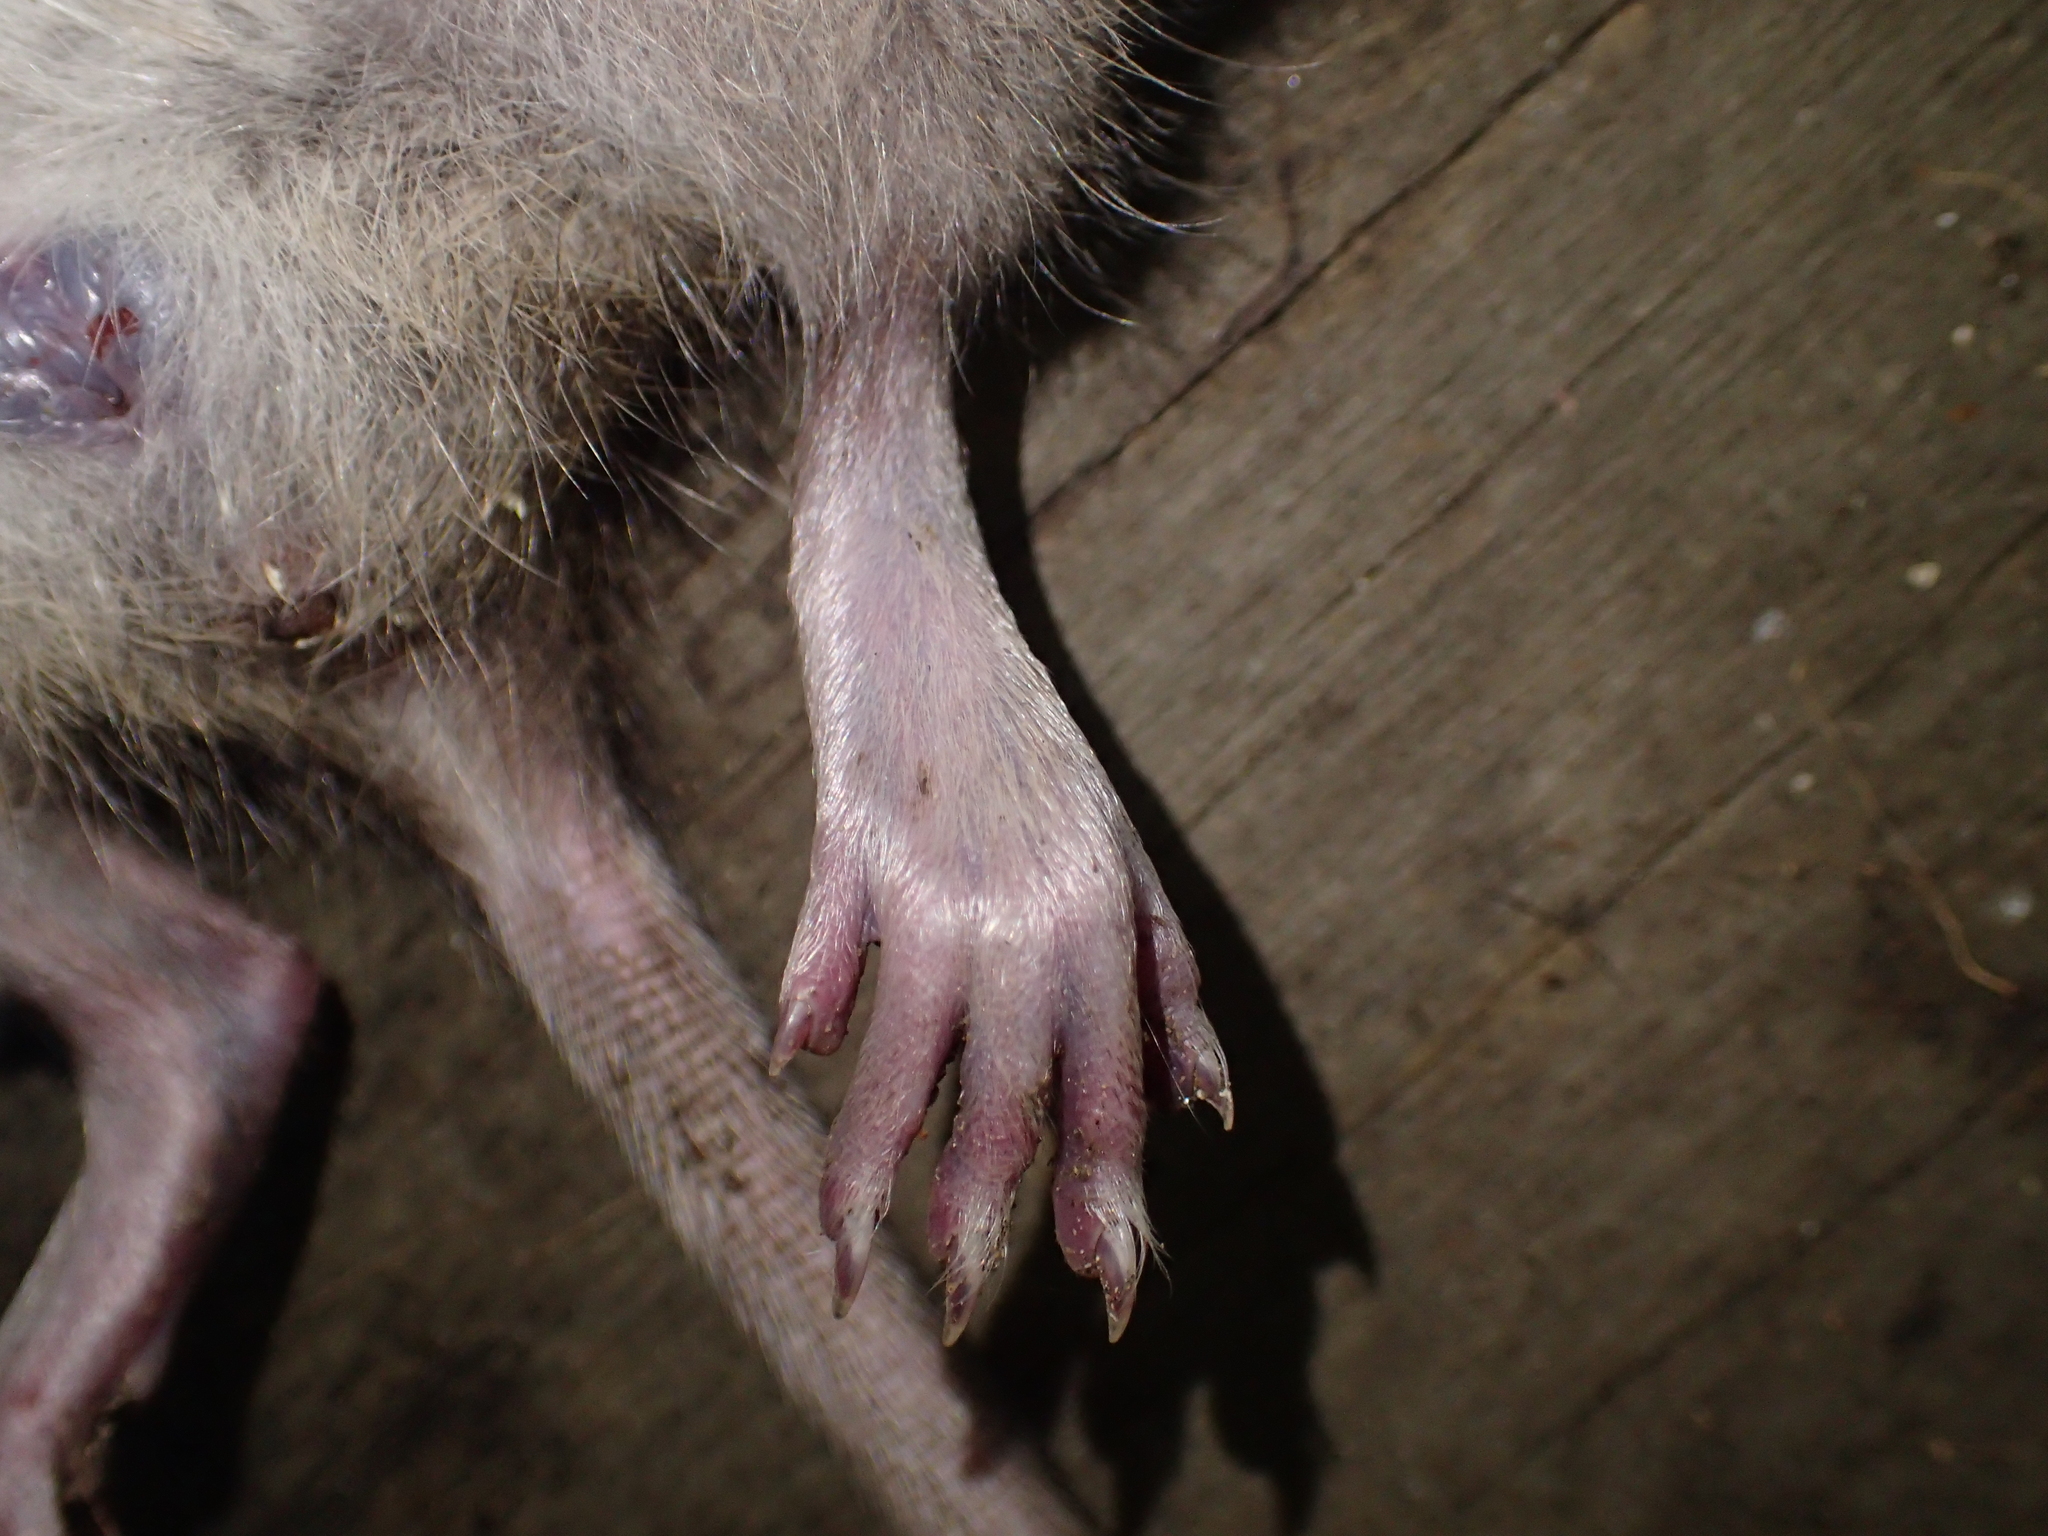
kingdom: Animalia
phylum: Chordata
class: Mammalia
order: Rodentia
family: Muridae
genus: Rattus
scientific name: Rattus norvegicus
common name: Brown rat
